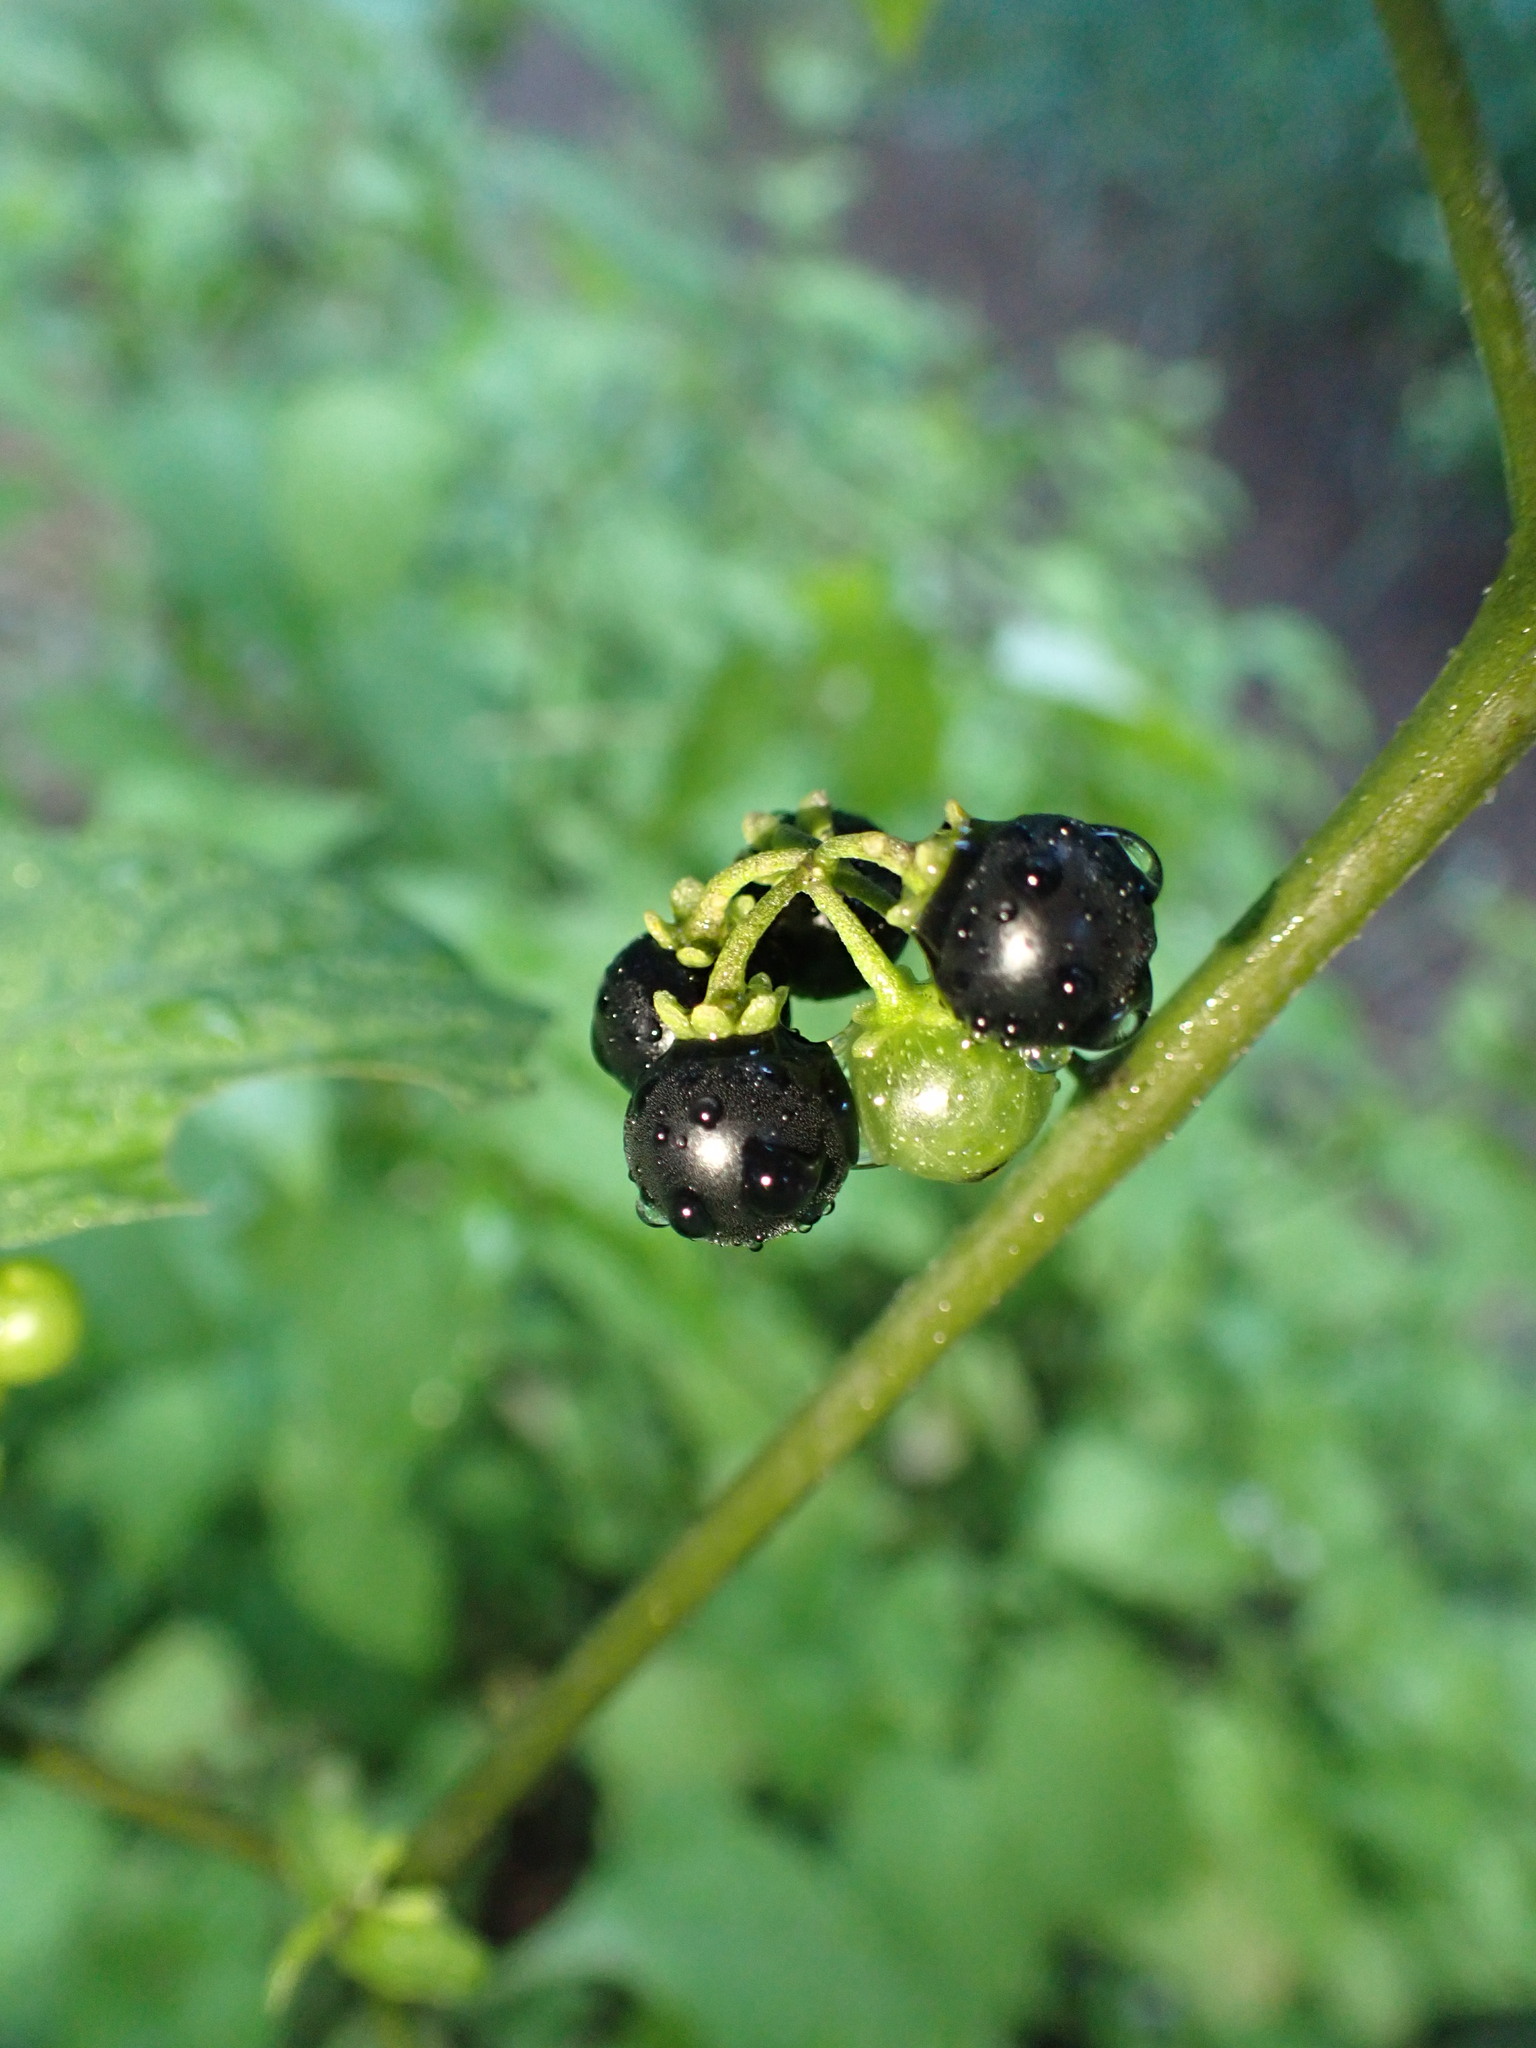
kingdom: Plantae
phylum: Tracheophyta
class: Magnoliopsida
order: Solanales
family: Solanaceae
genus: Solanum
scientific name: Solanum americanum
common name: American black nightshade
